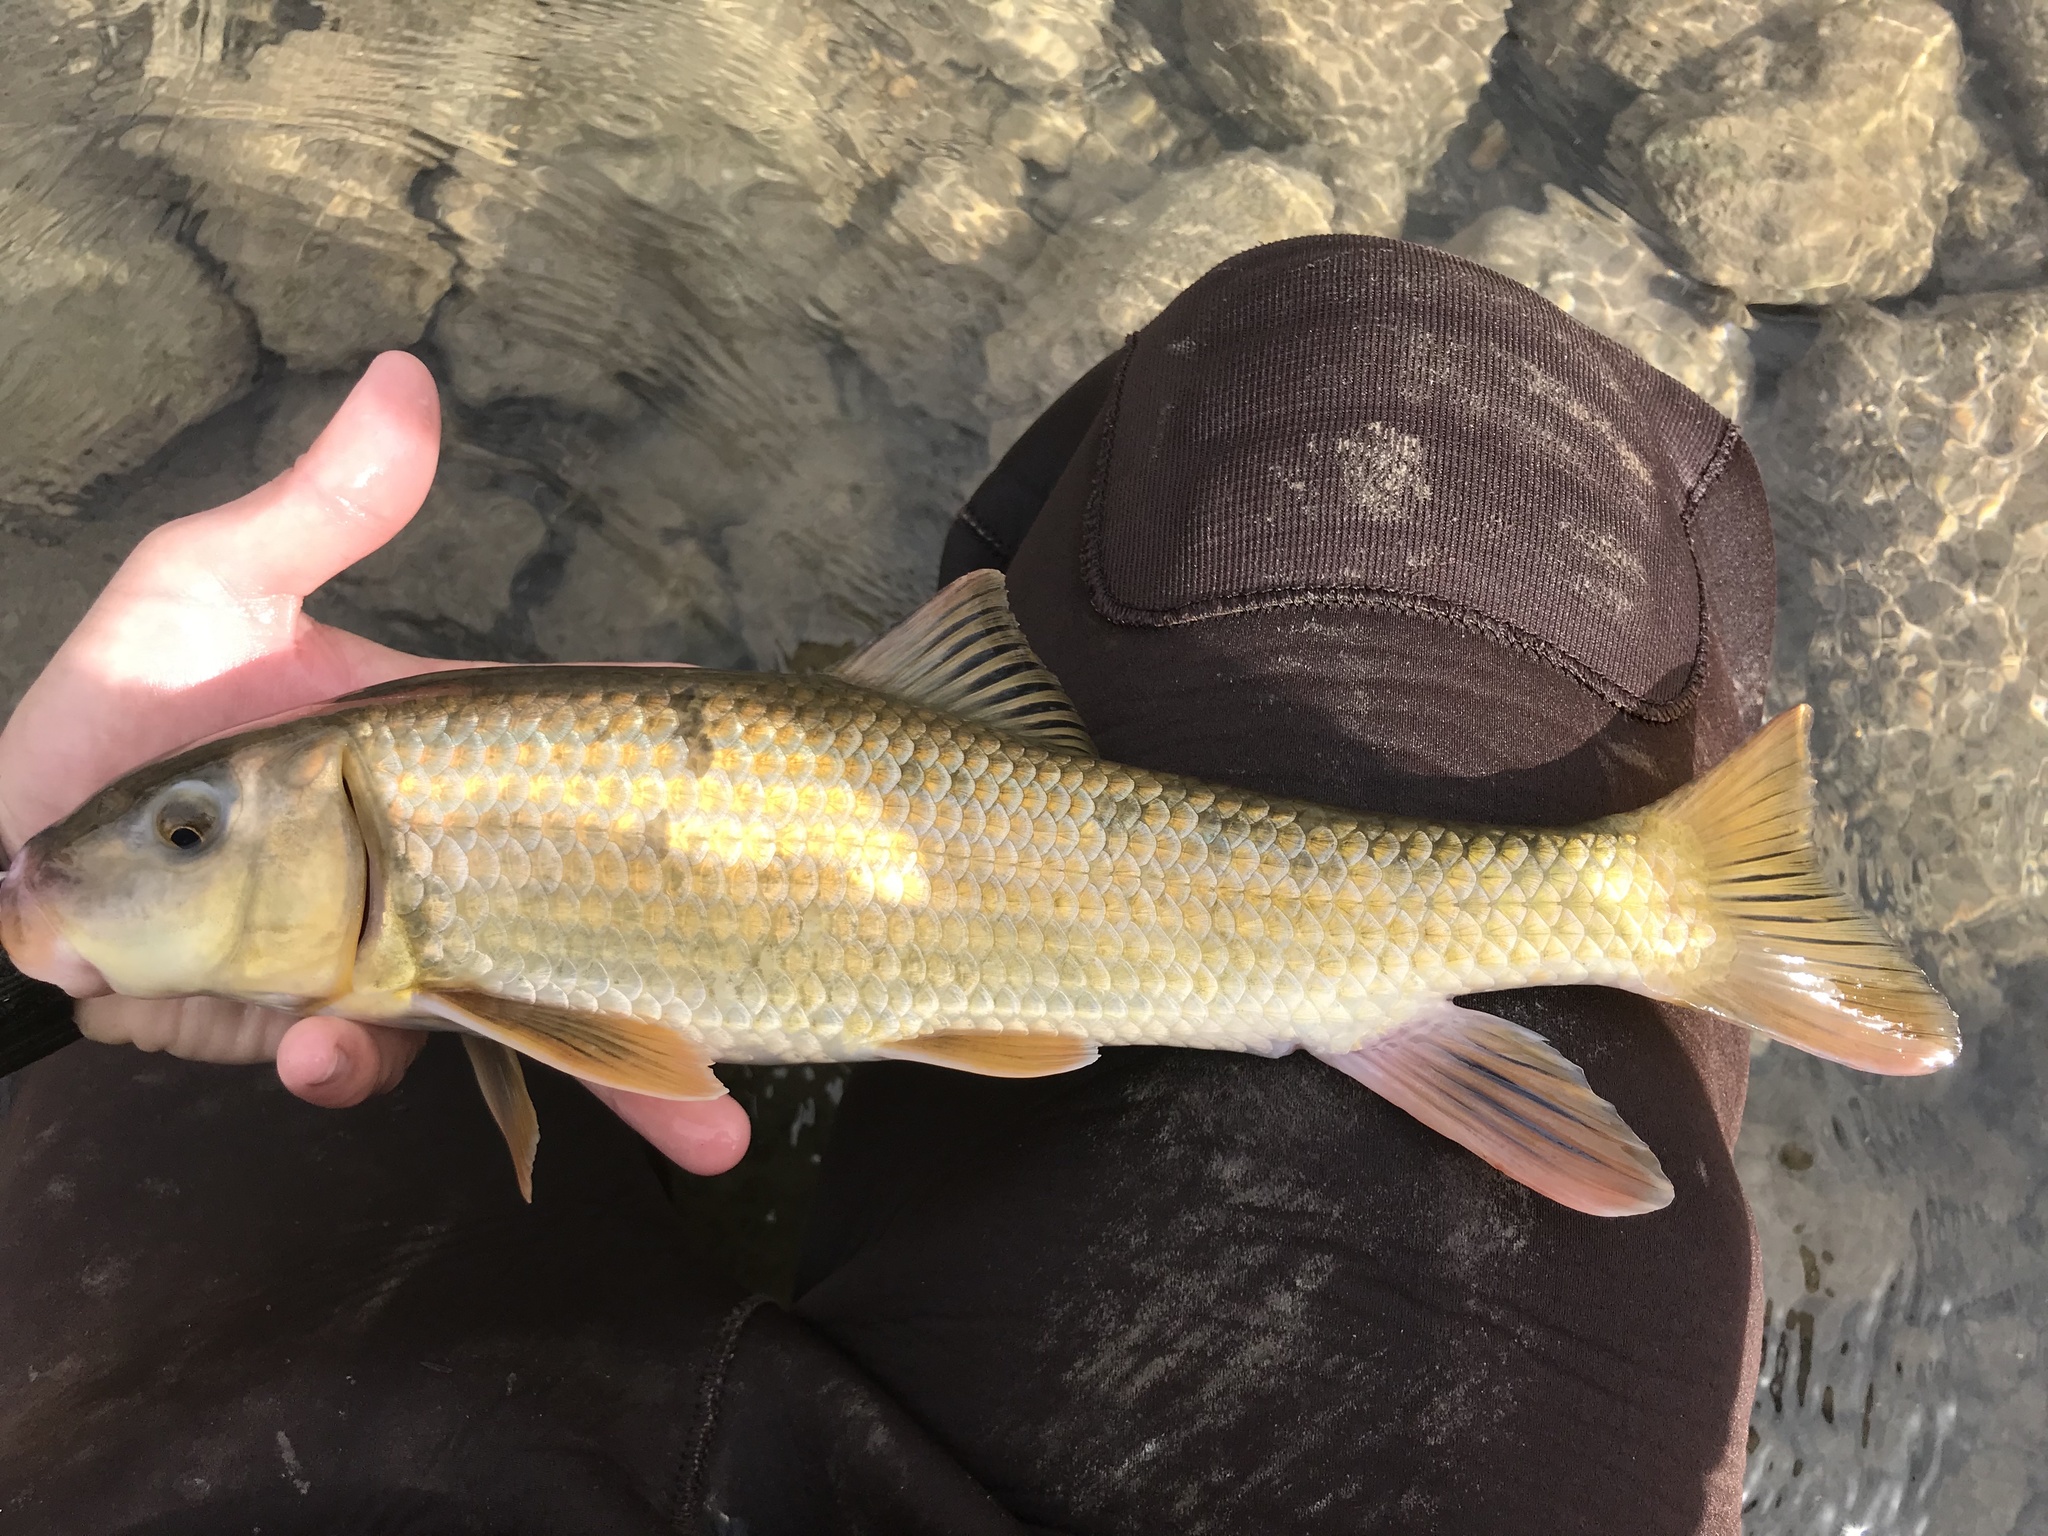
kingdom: Animalia
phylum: Chordata
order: Cypriniformes
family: Catostomidae
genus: Moxostoma
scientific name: Moxostoma congestum
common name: Gray redhorse
